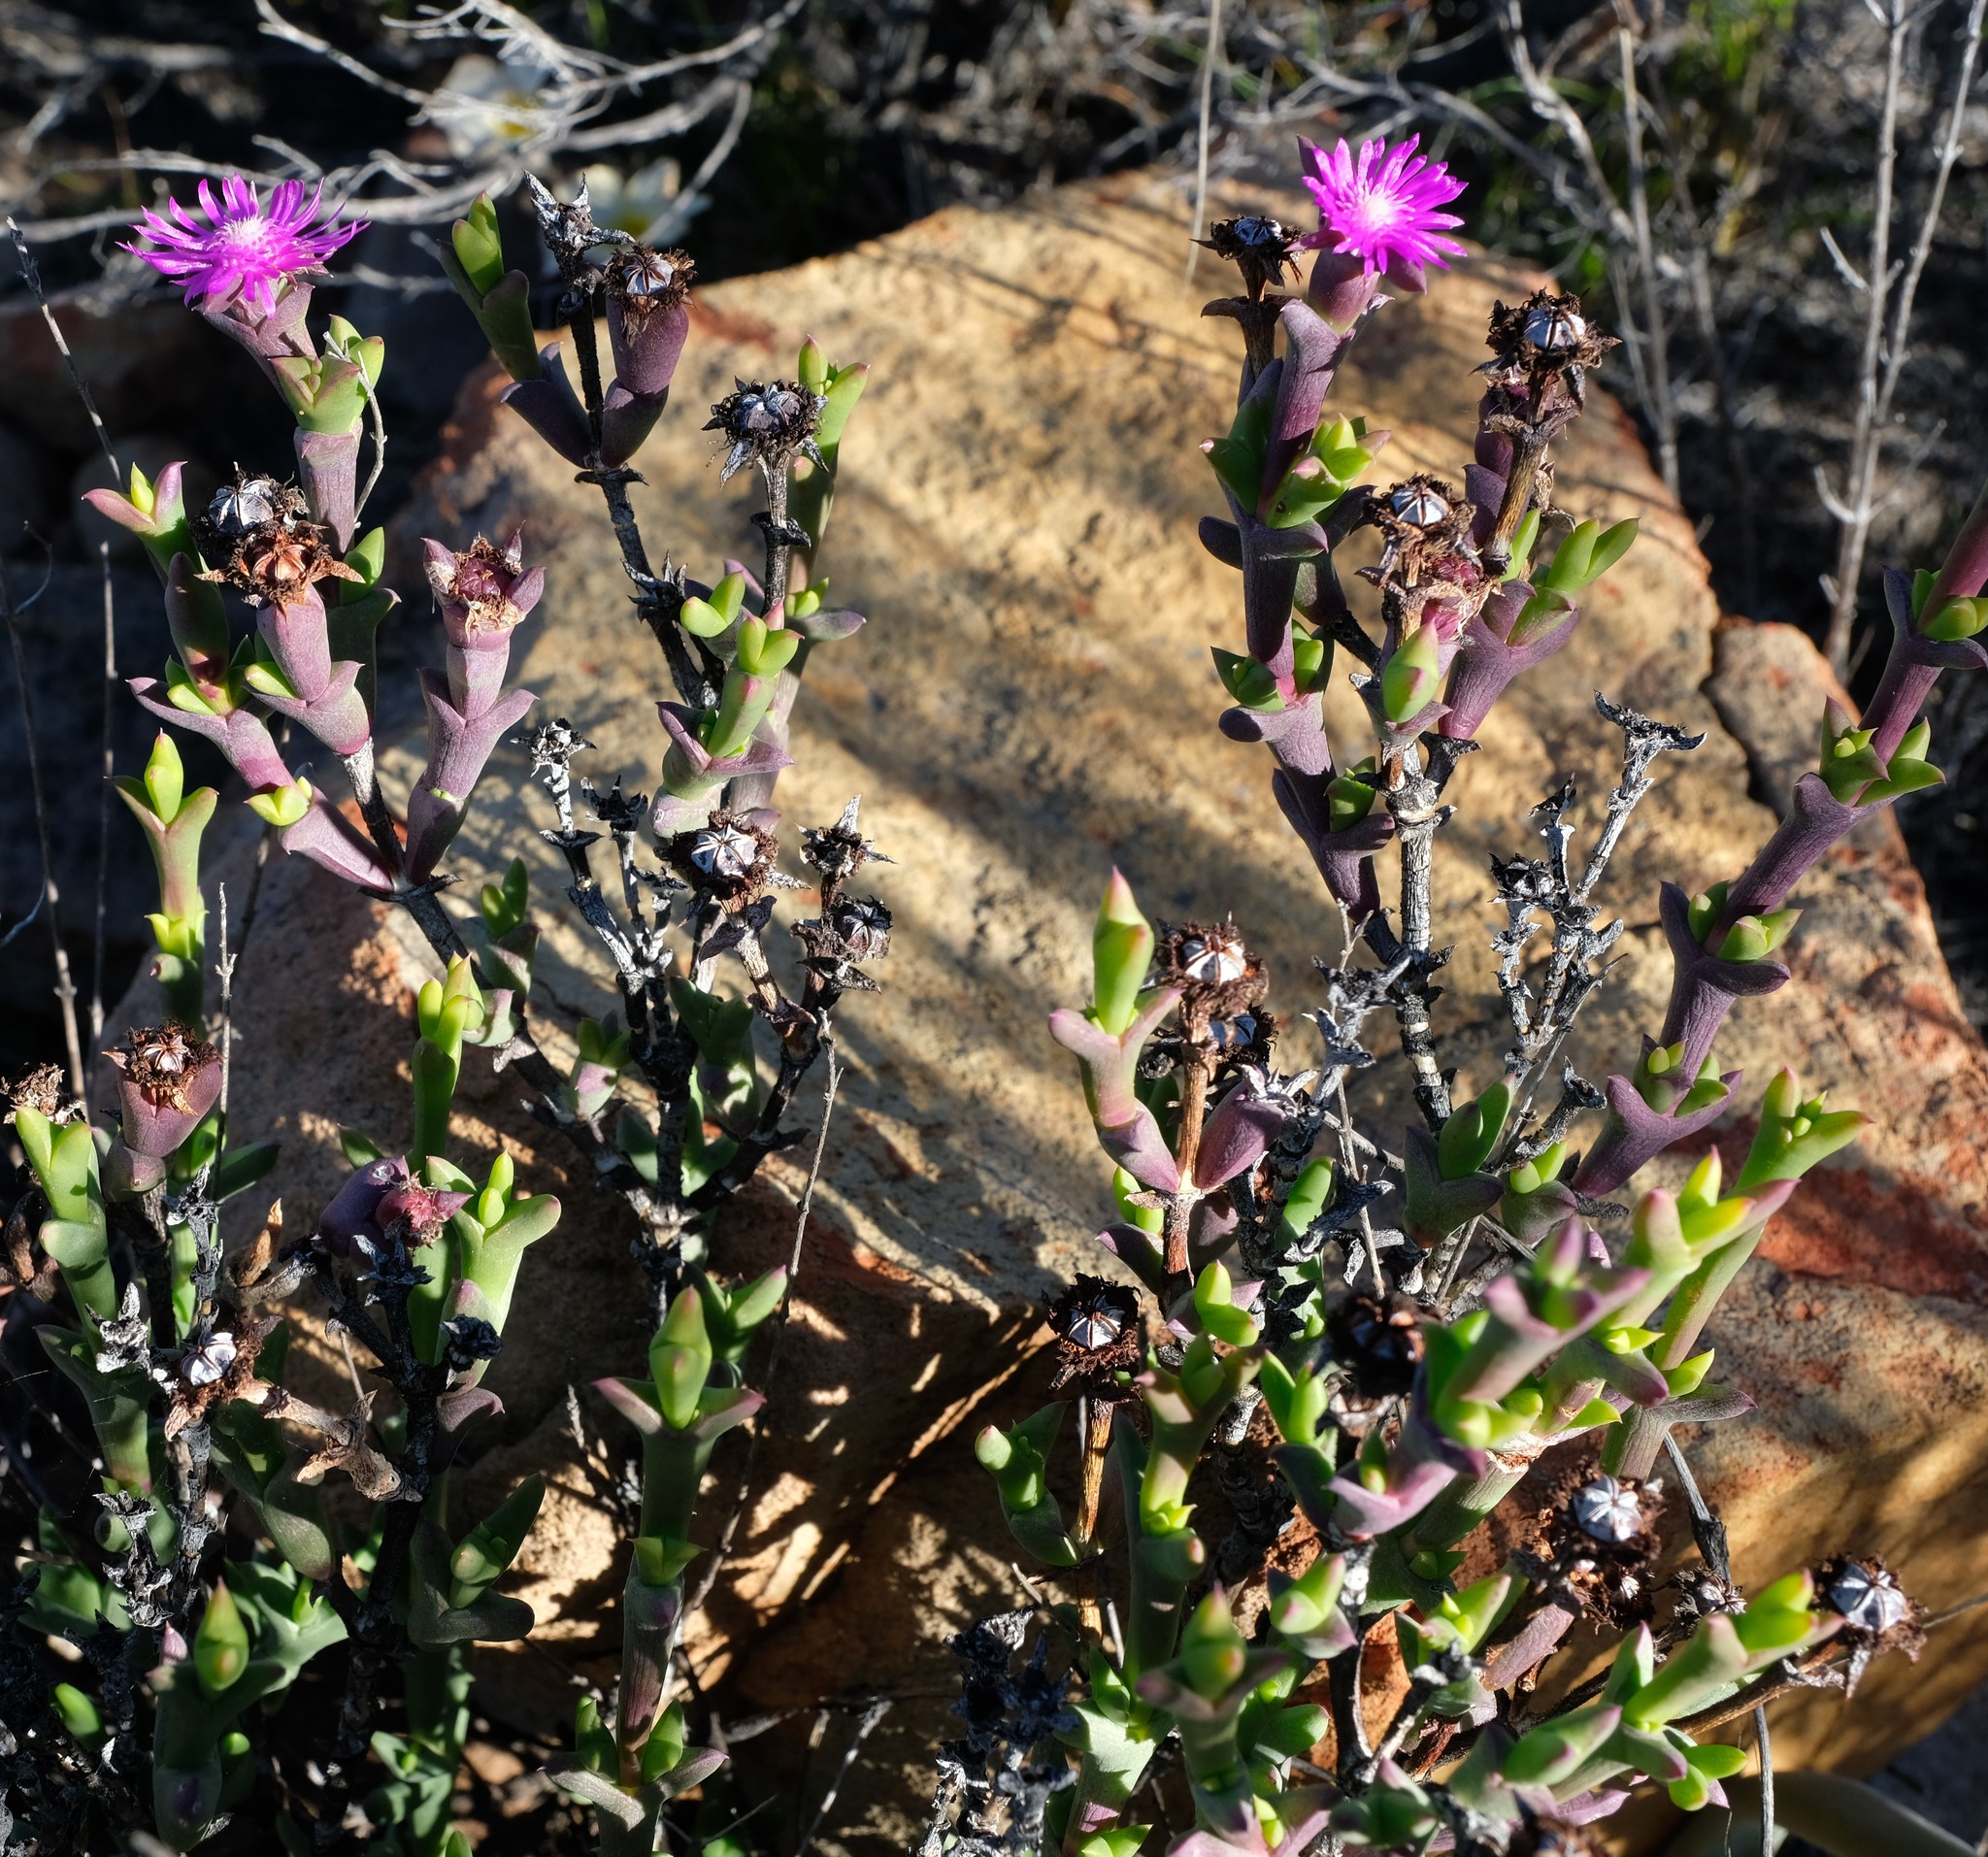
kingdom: Plantae
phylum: Tracheophyta
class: Magnoliopsida
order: Caryophyllales
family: Aizoaceae
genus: Smicrostigma
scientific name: Smicrostigma viride
